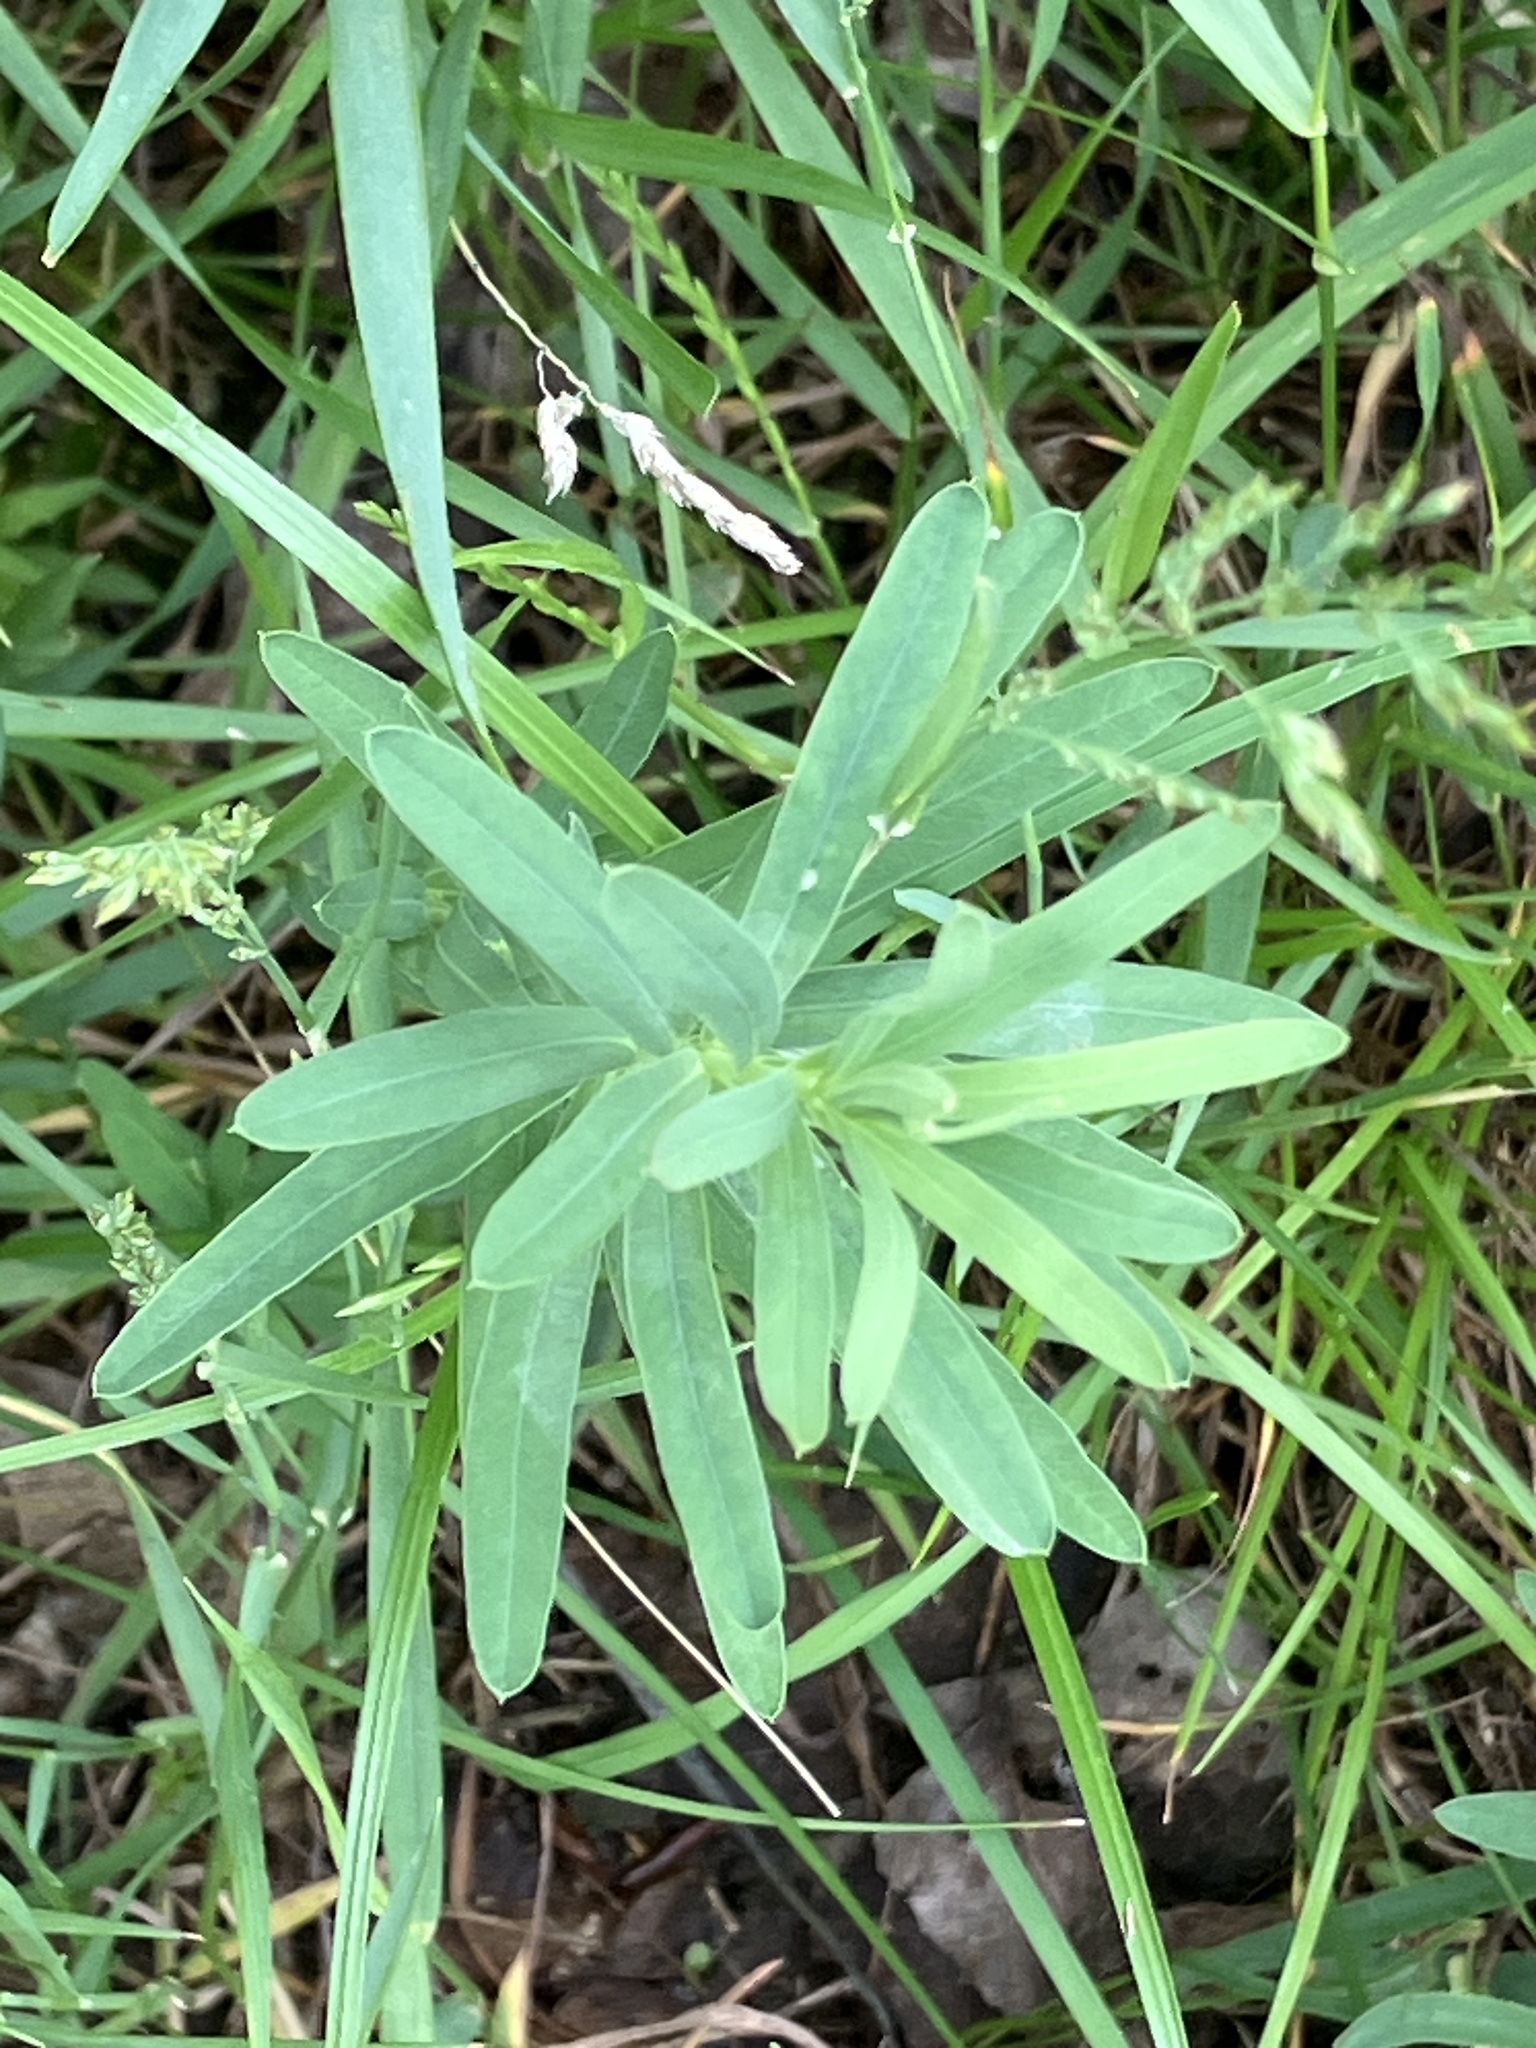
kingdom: Plantae
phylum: Tracheophyta
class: Magnoliopsida
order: Malpighiales
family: Euphorbiaceae
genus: Euphorbia
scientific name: Euphorbia esula
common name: Leafy spurge
